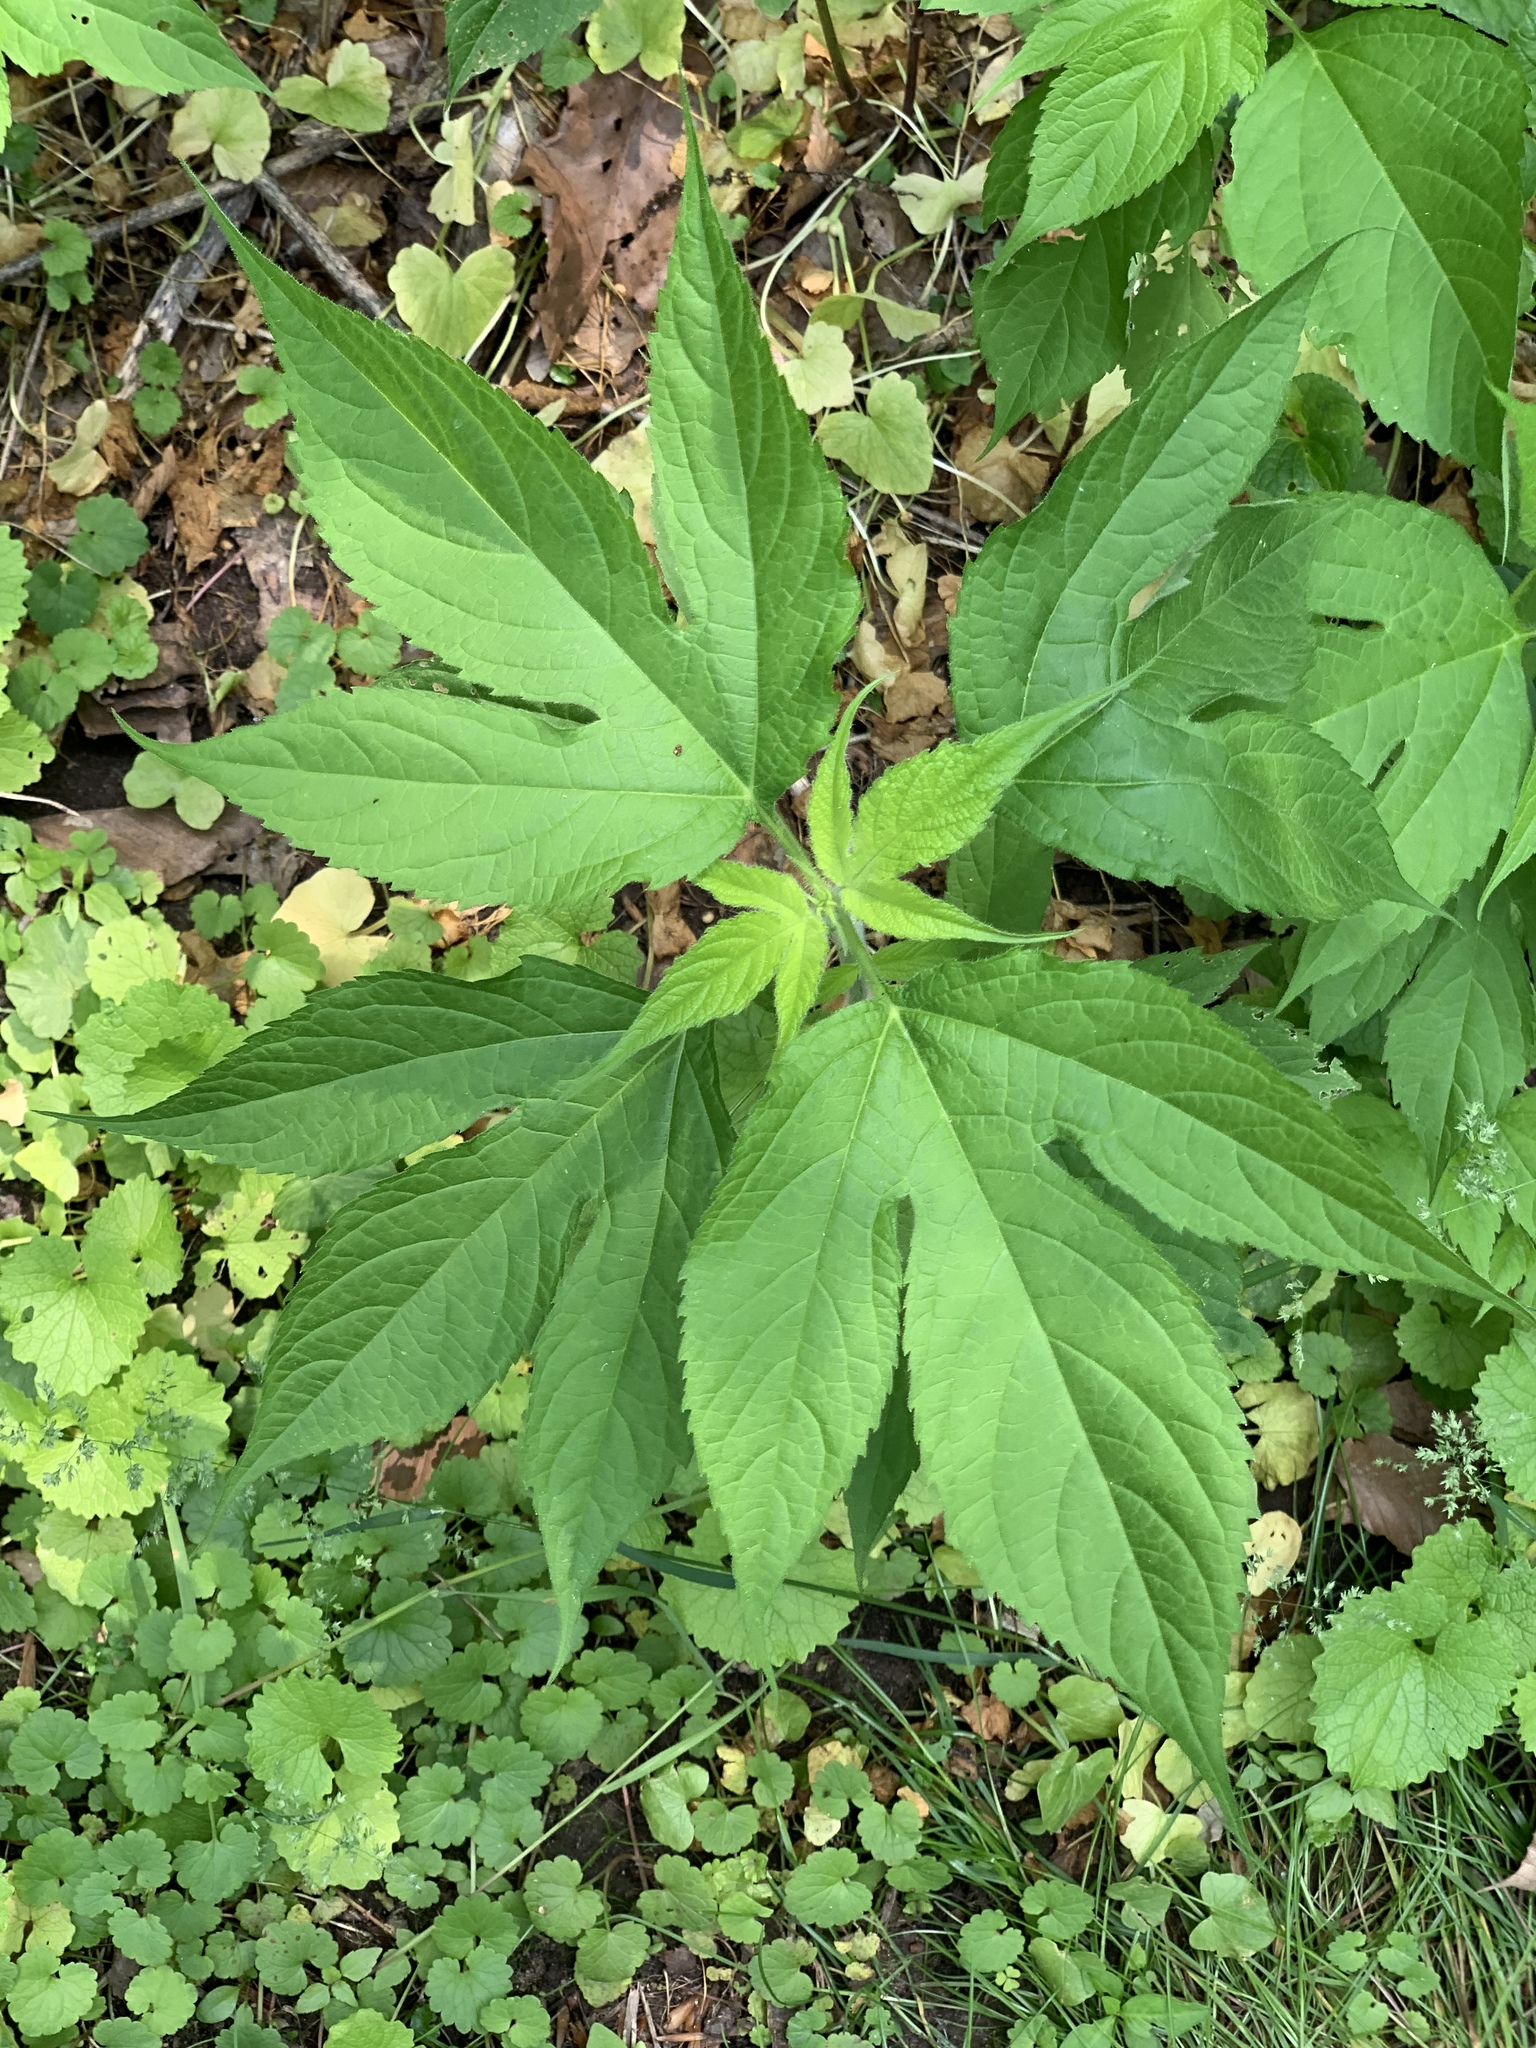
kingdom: Plantae
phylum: Tracheophyta
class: Magnoliopsida
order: Asterales
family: Asteraceae
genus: Ambrosia
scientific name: Ambrosia trifida
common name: Giant ragweed
